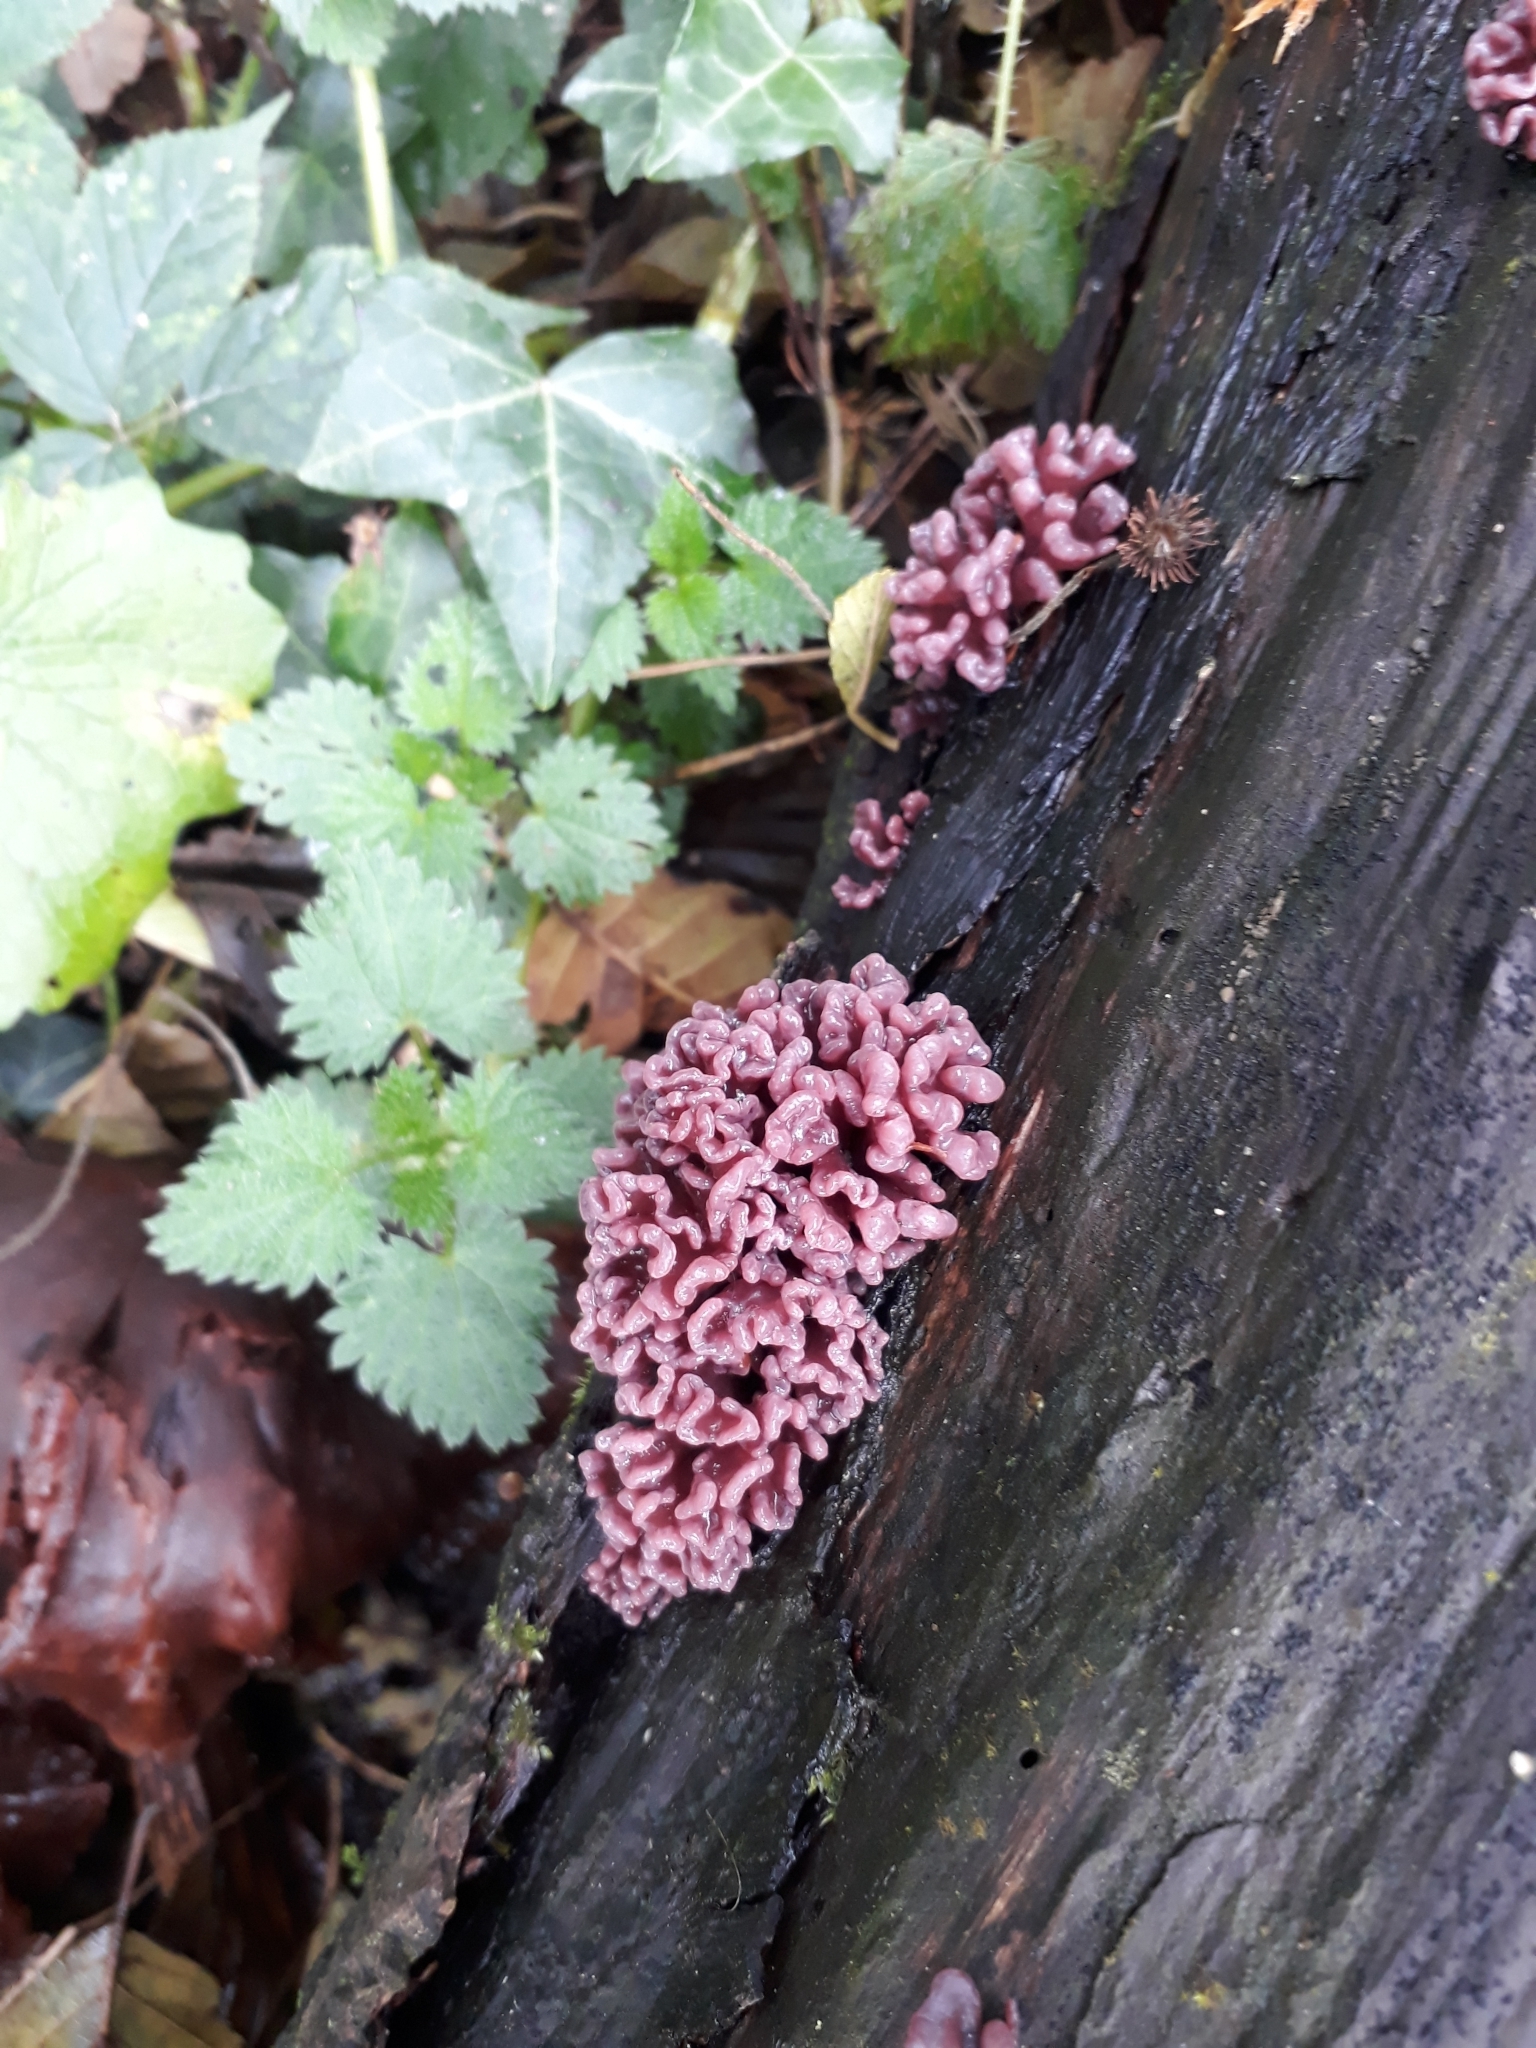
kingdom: Fungi
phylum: Ascomycota
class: Leotiomycetes
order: Helotiales
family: Gelatinodiscaceae
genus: Ascocoryne
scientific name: Ascocoryne sarcoides
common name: Purple jellydisc
